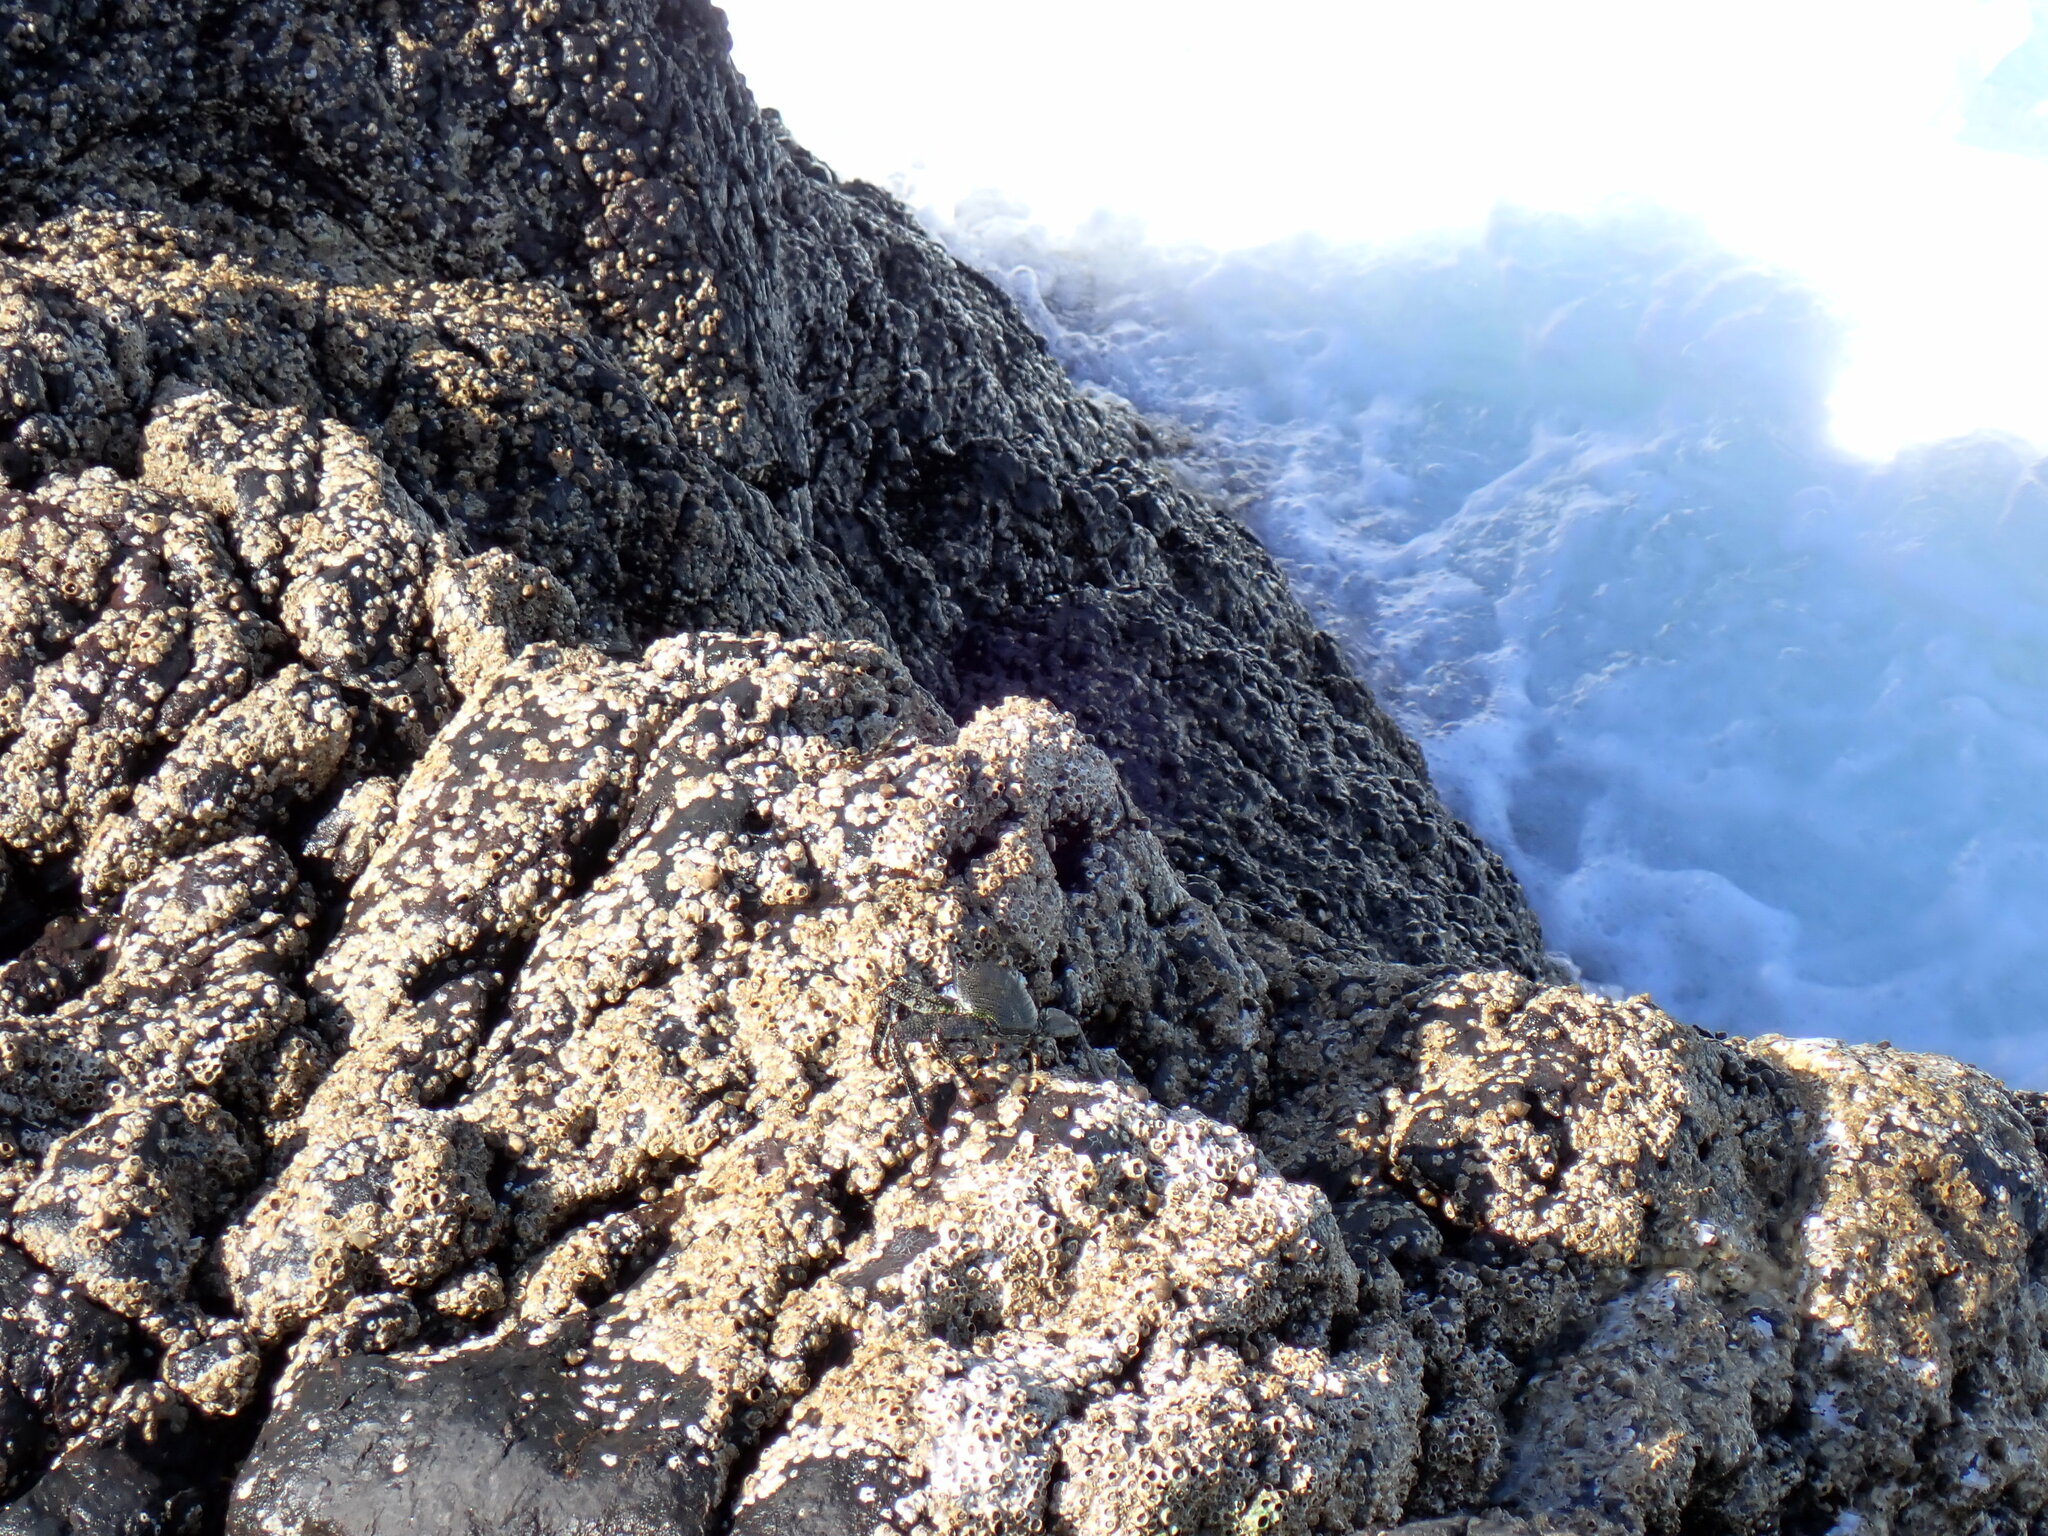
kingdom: Animalia
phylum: Arthropoda
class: Malacostraca
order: Decapoda
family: Grapsidae
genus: Grapsus
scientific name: Grapsus adscensionis
